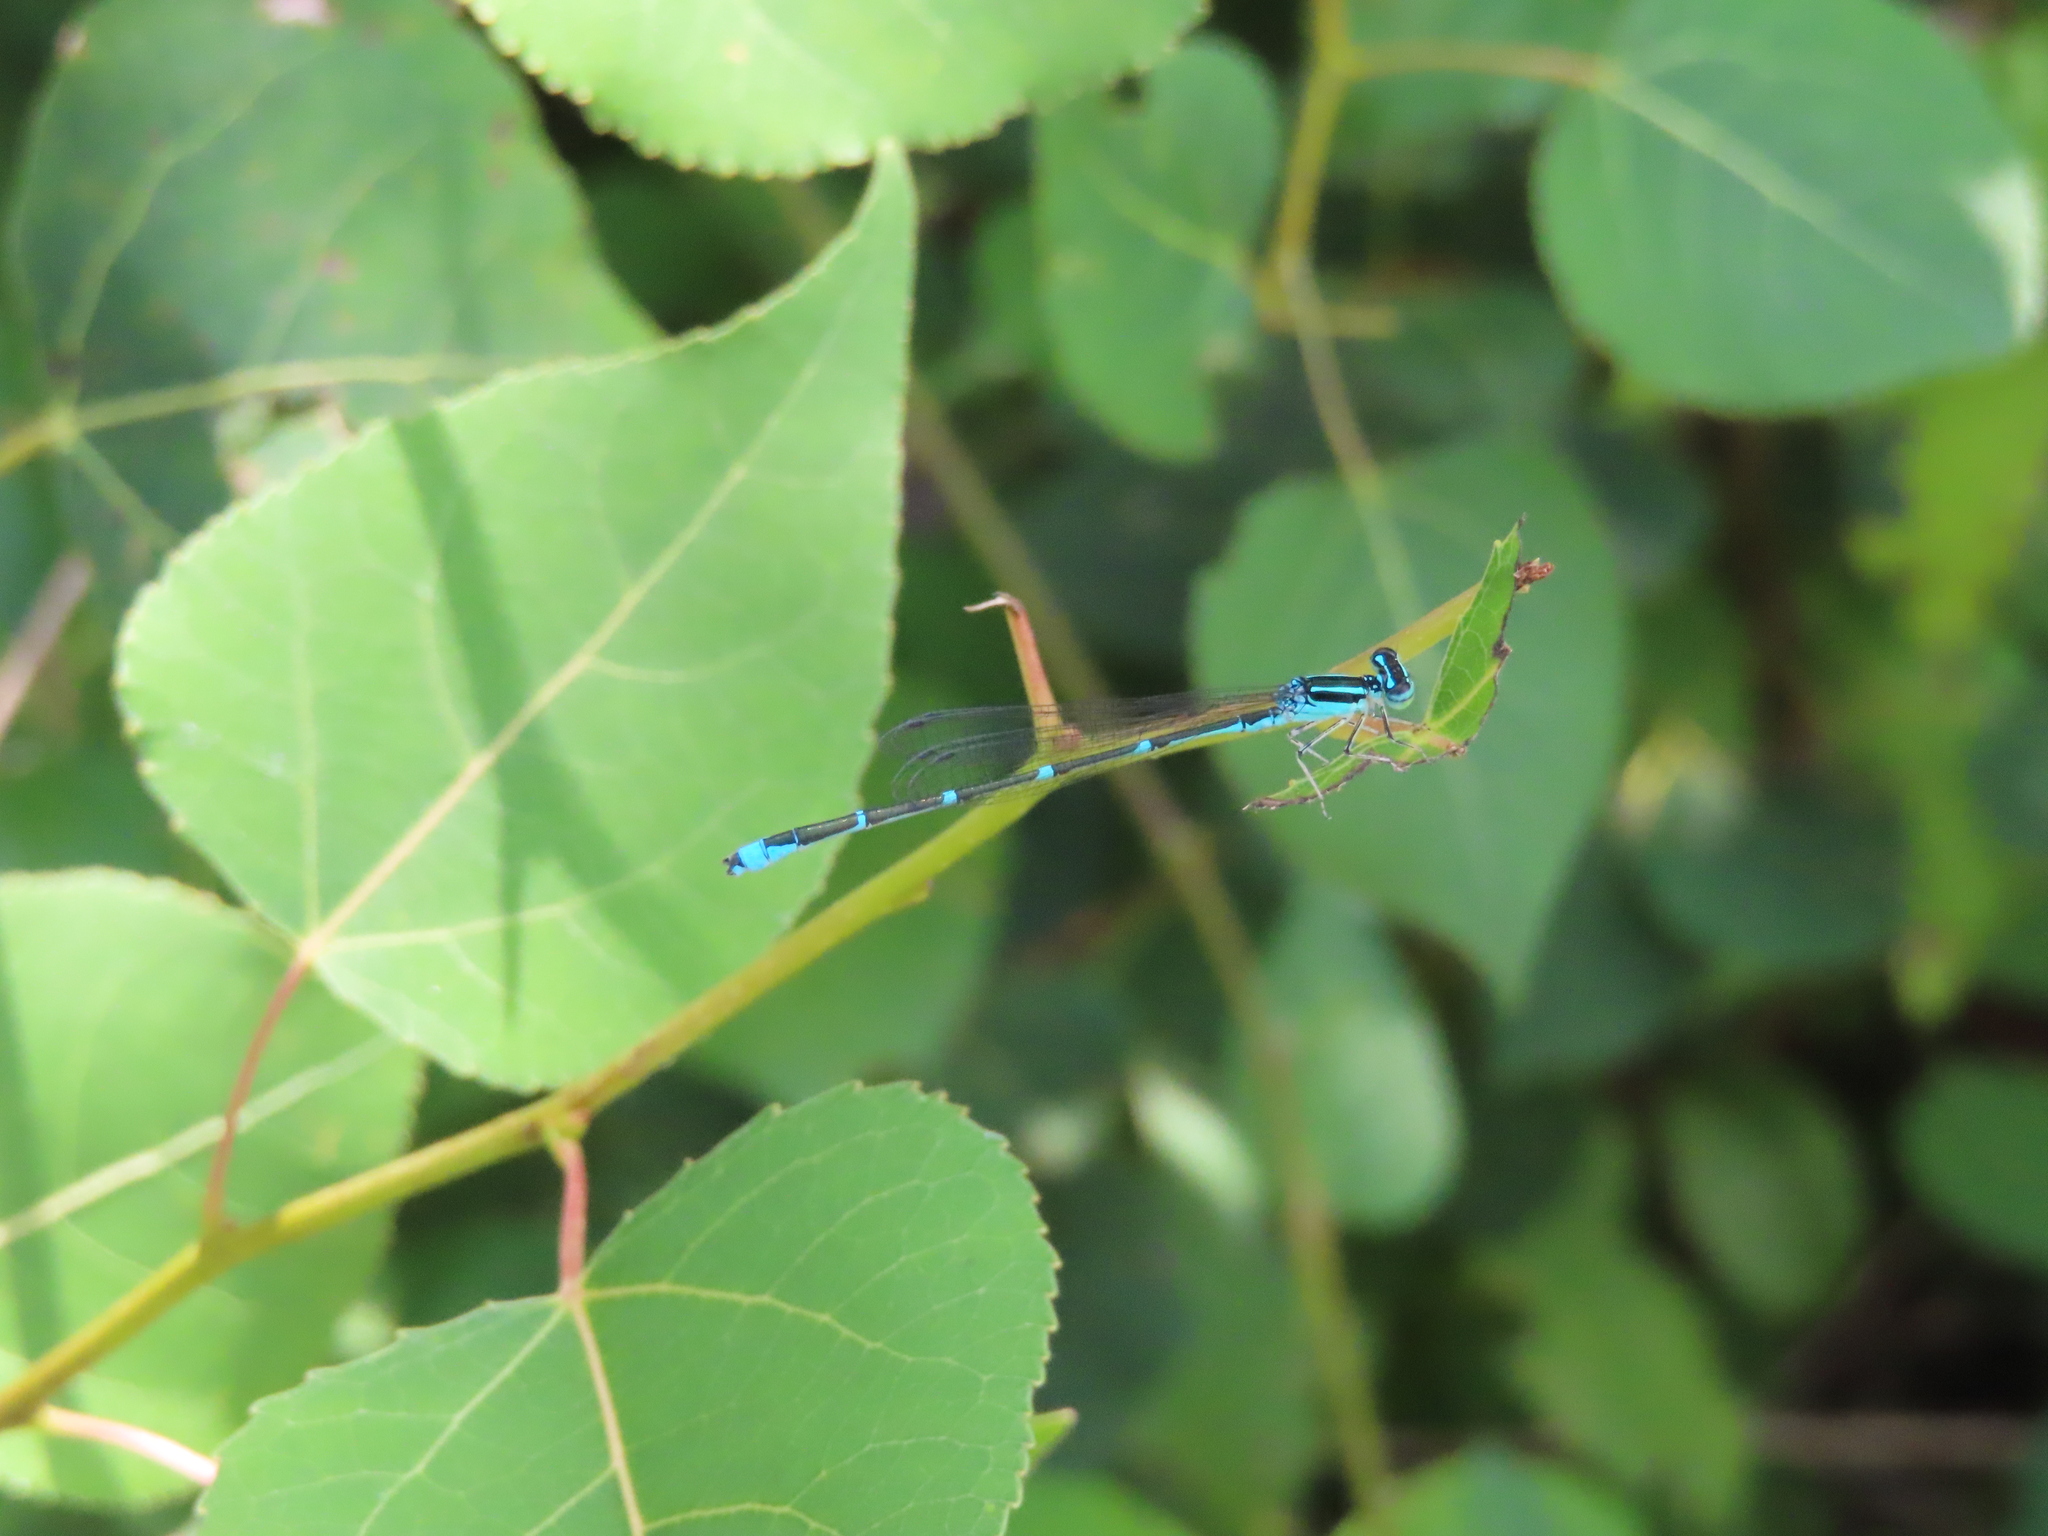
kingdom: Animalia
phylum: Arthropoda
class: Insecta
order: Odonata
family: Coenagrionidae
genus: Enallagma
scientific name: Enallagma exsulans
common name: Stream bluet
